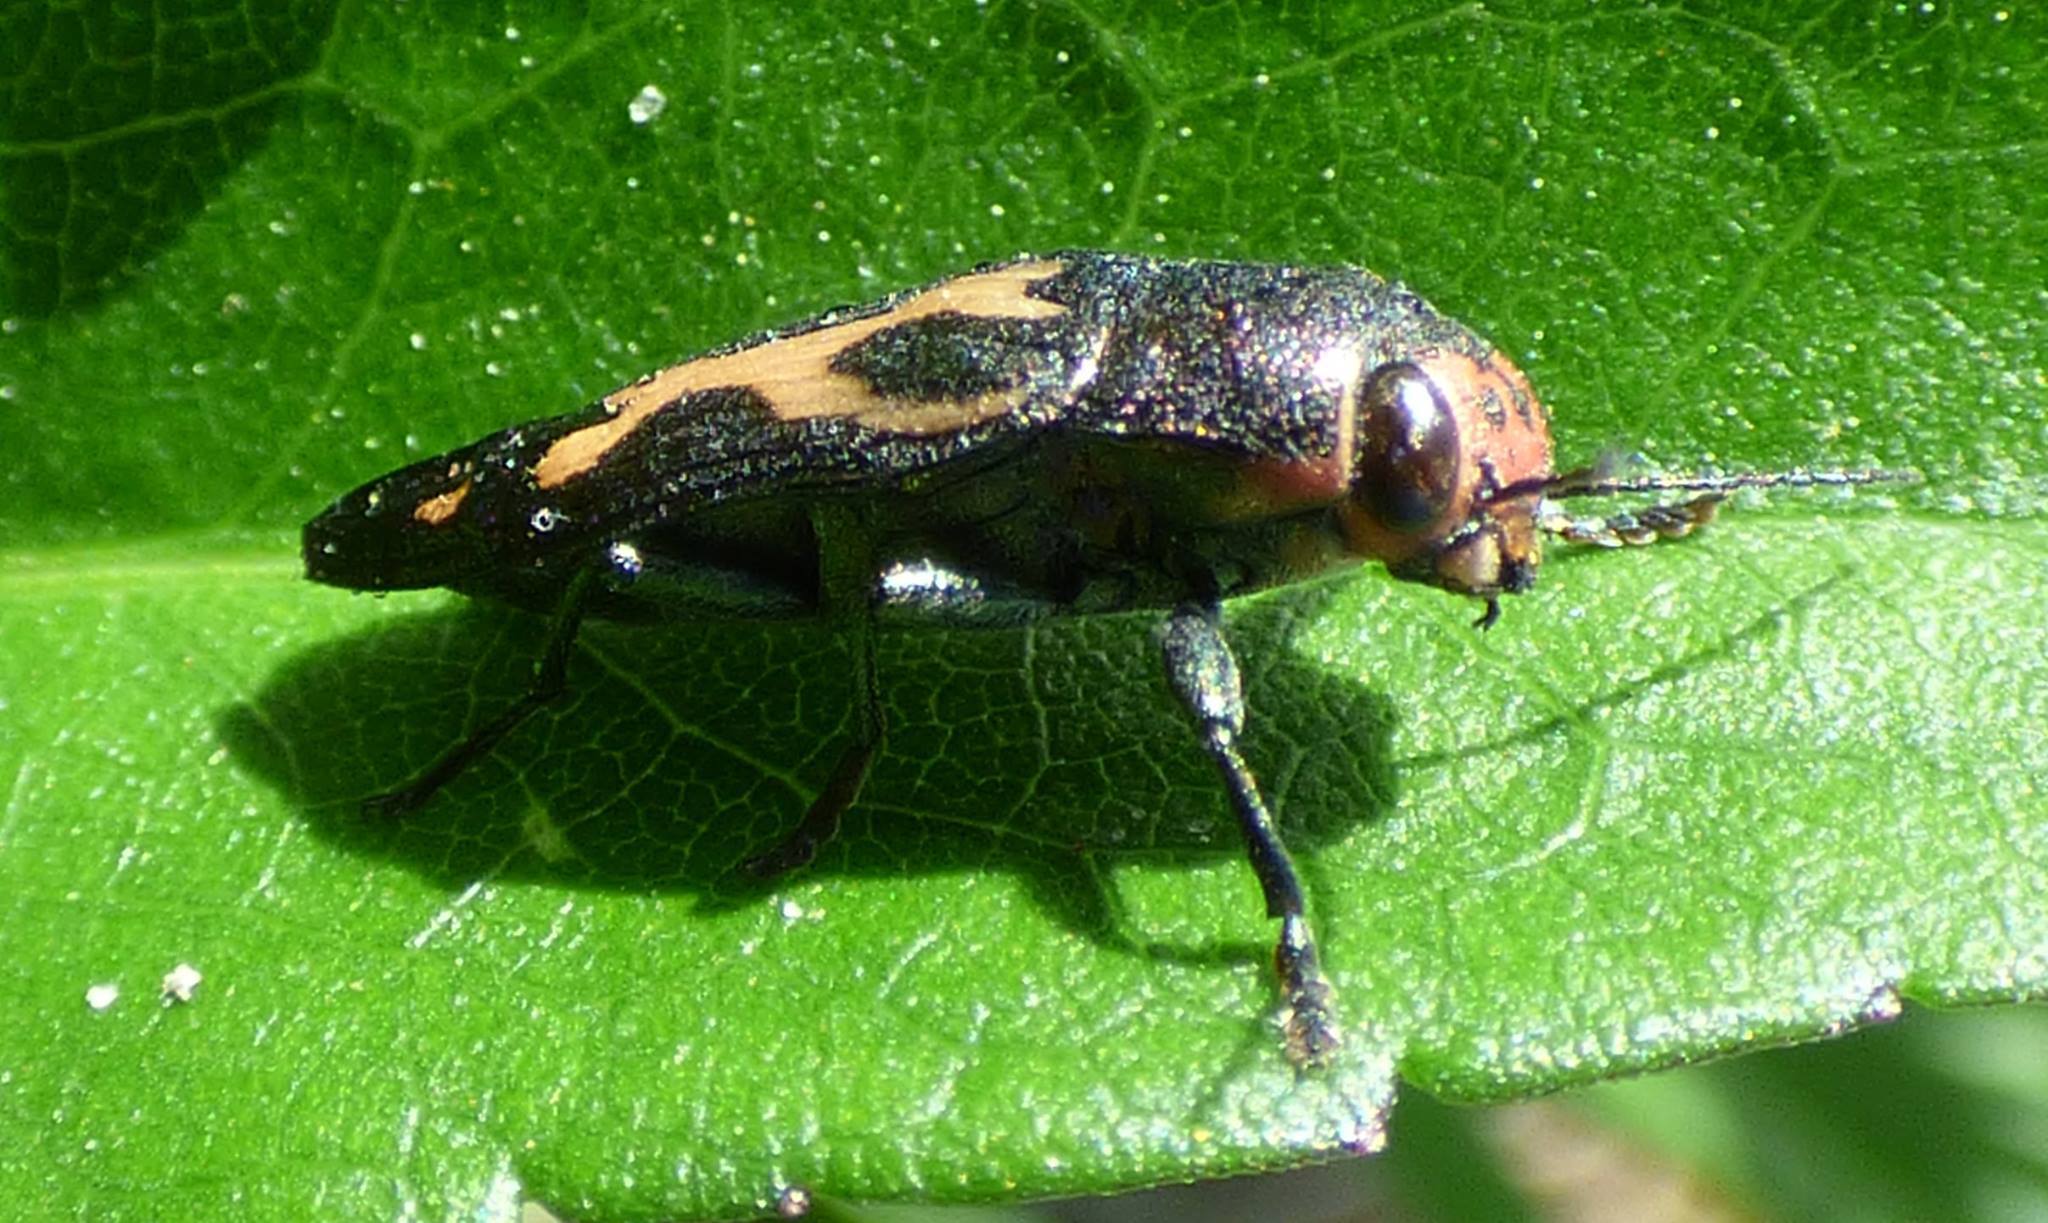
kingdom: Animalia
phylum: Arthropoda
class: Insecta
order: Coleoptera
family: Buprestidae
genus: Buprestis
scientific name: Buprestis maculipennis
